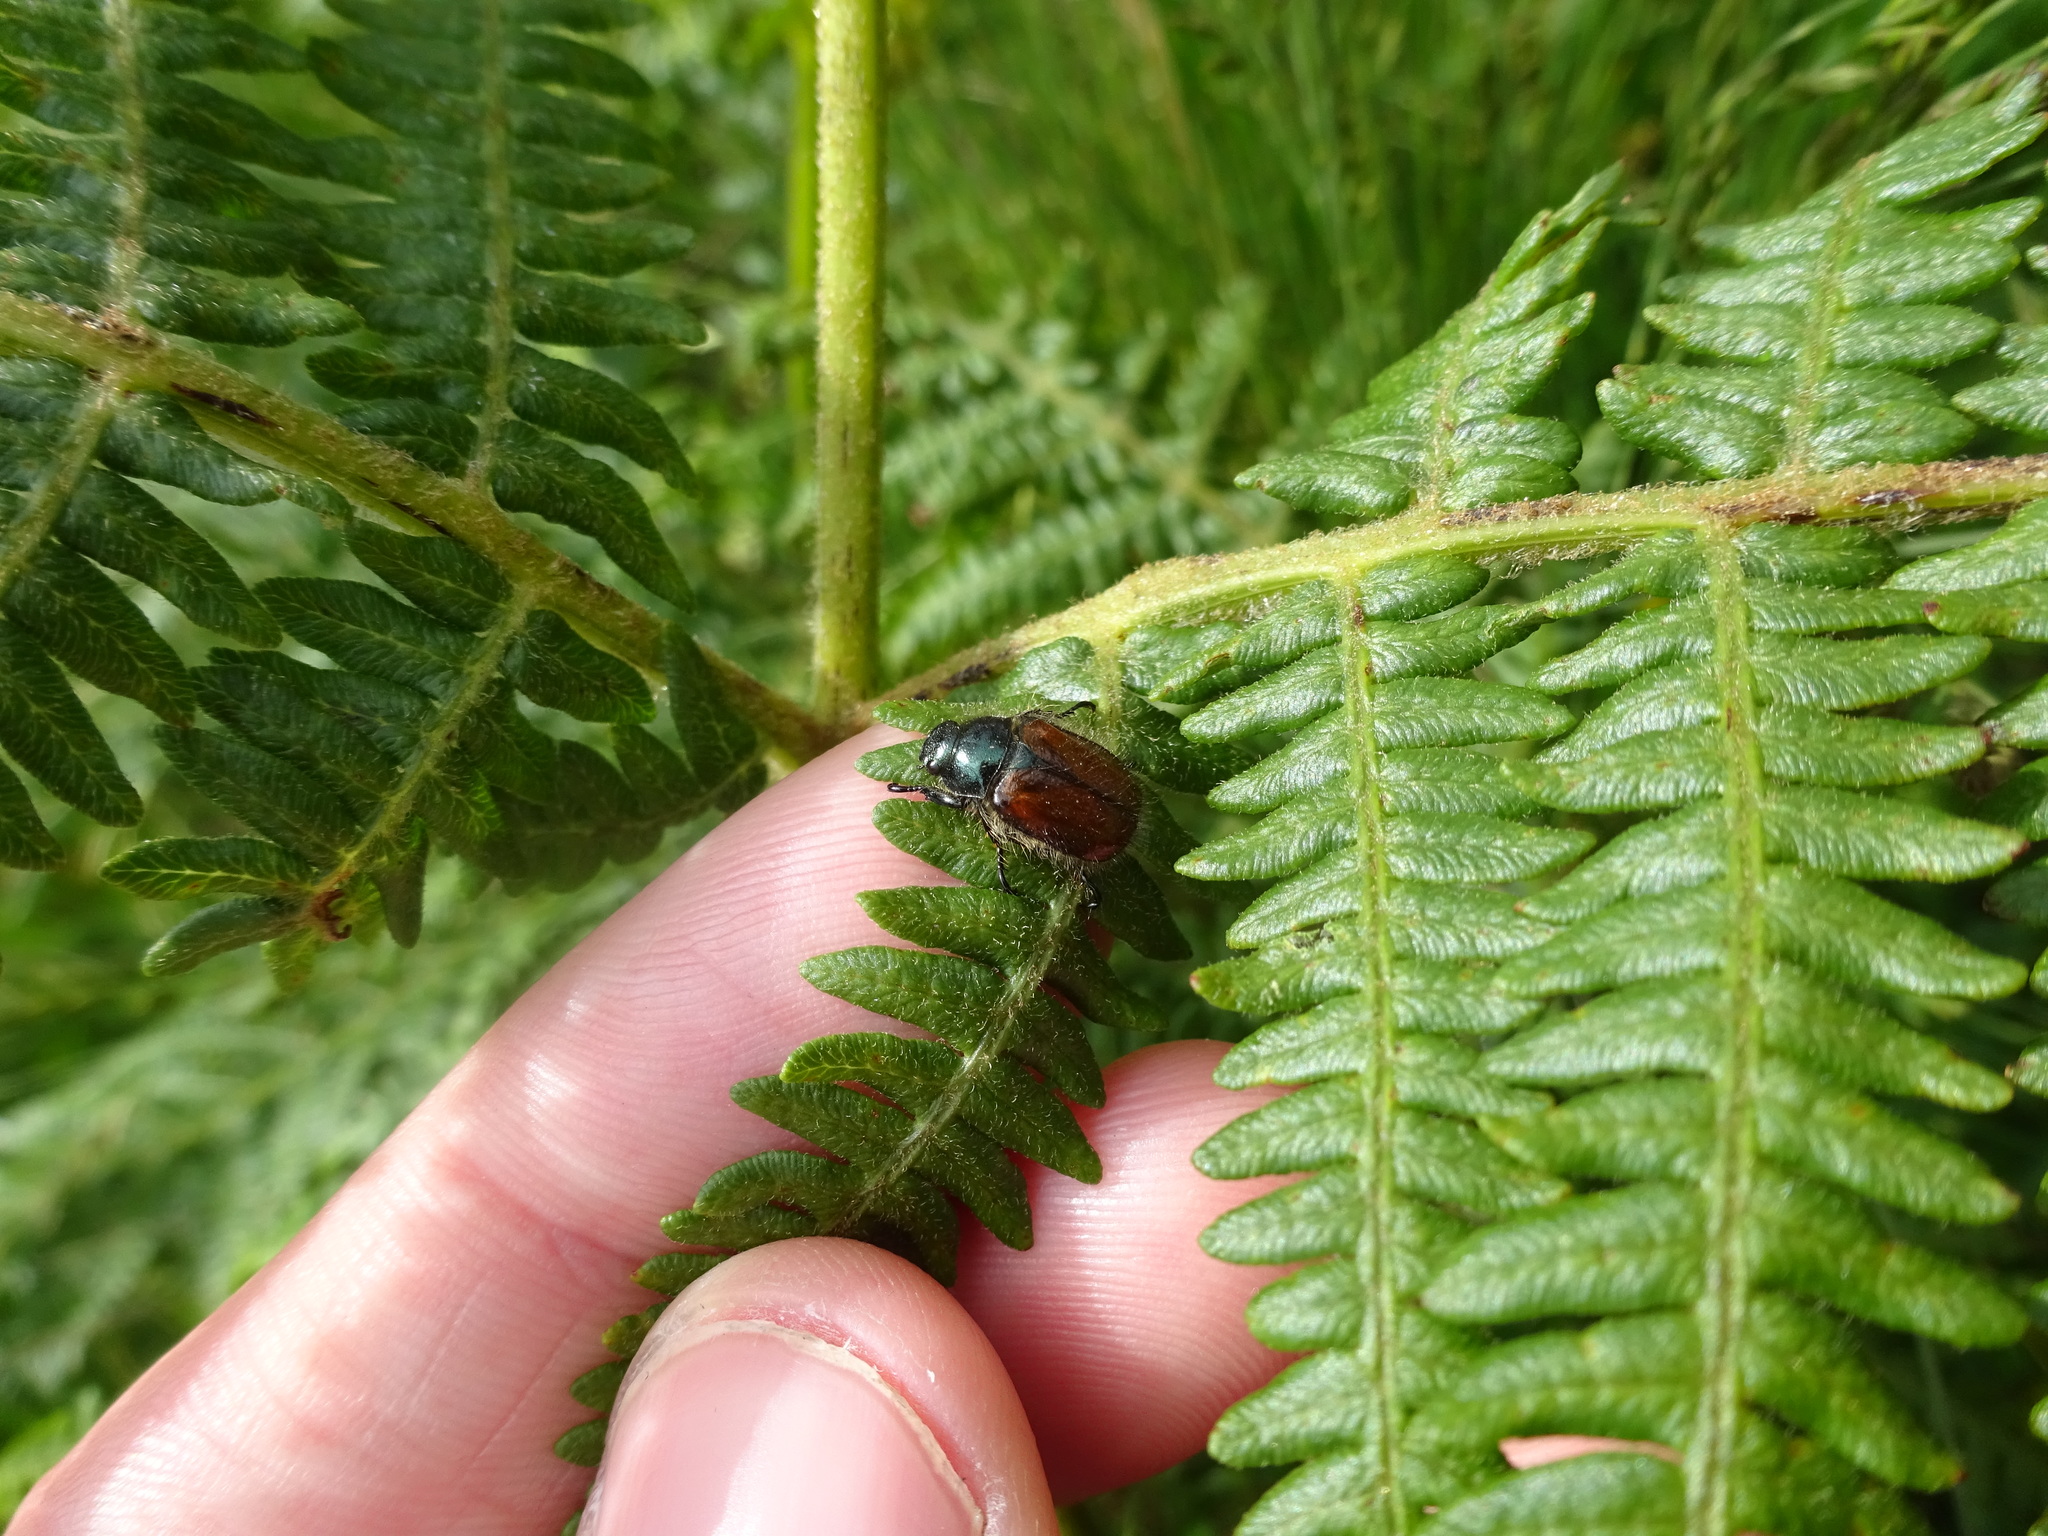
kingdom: Animalia
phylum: Arthropoda
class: Insecta
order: Coleoptera
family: Scarabaeidae
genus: Phyllopertha
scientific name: Phyllopertha horticola
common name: Garden chafer
